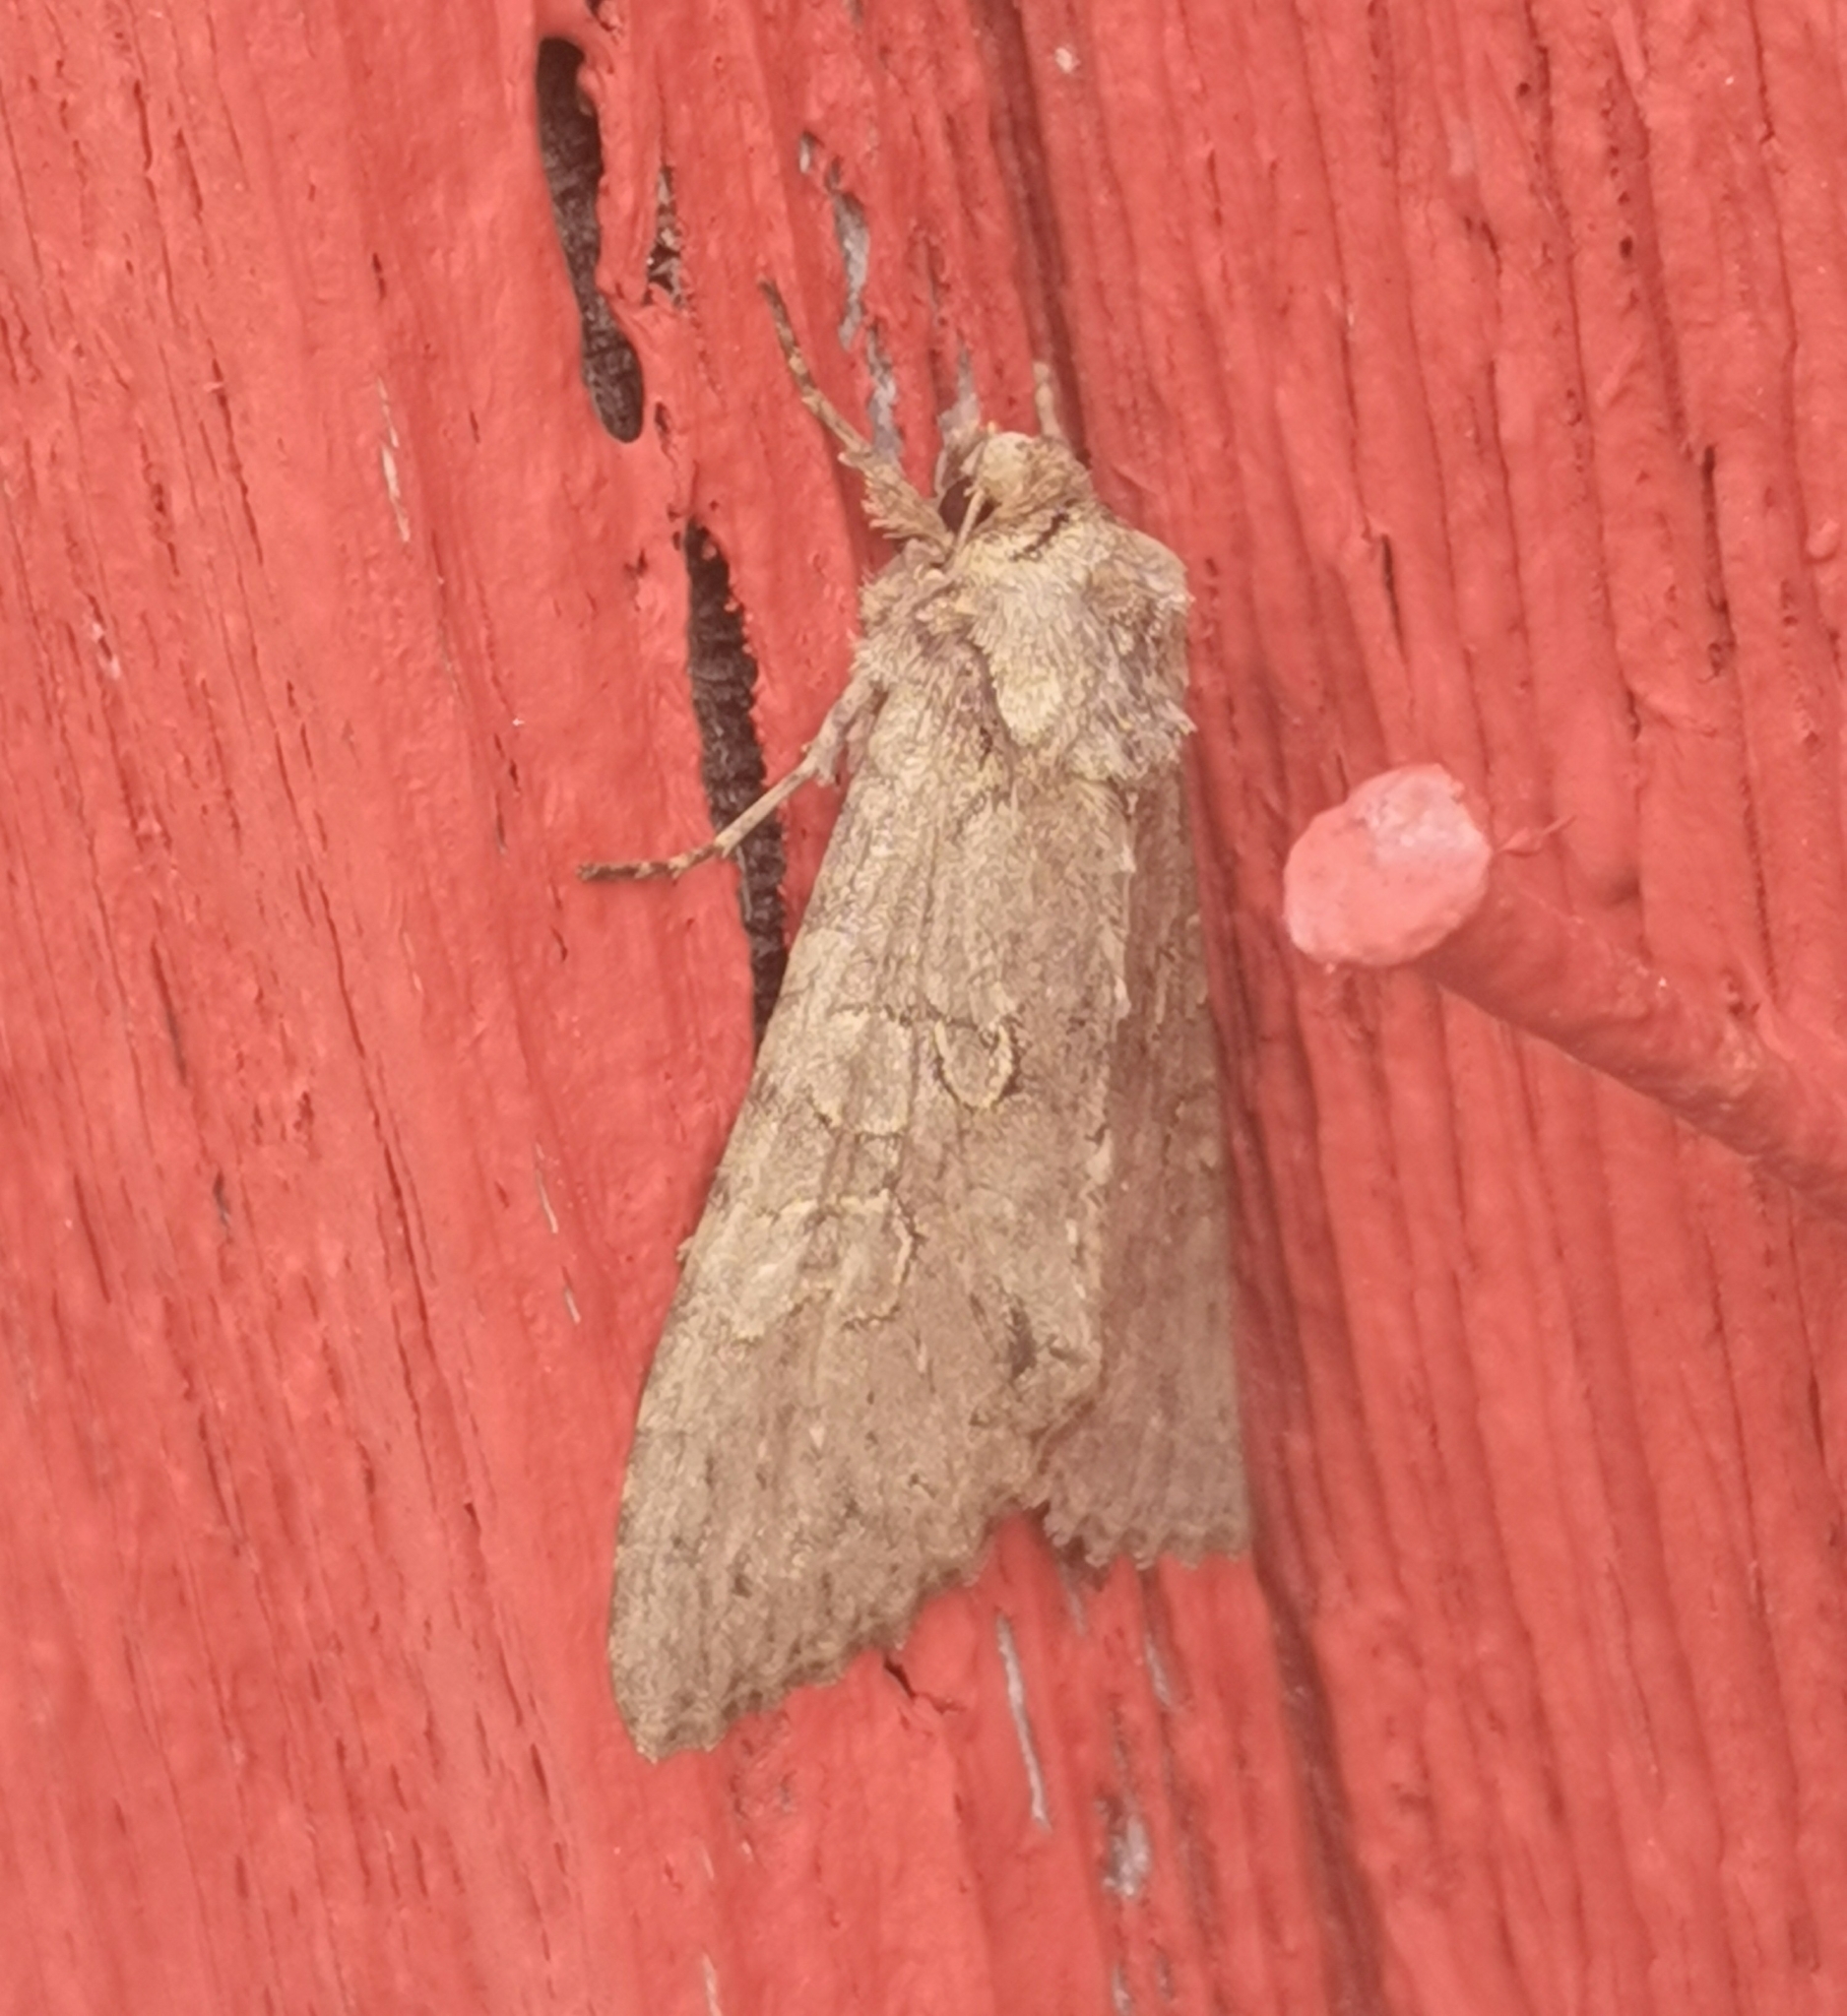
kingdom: Animalia
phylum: Arthropoda
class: Insecta
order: Lepidoptera
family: Noctuidae
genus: Polia
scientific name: Polia nebulosa
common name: Grey arches
